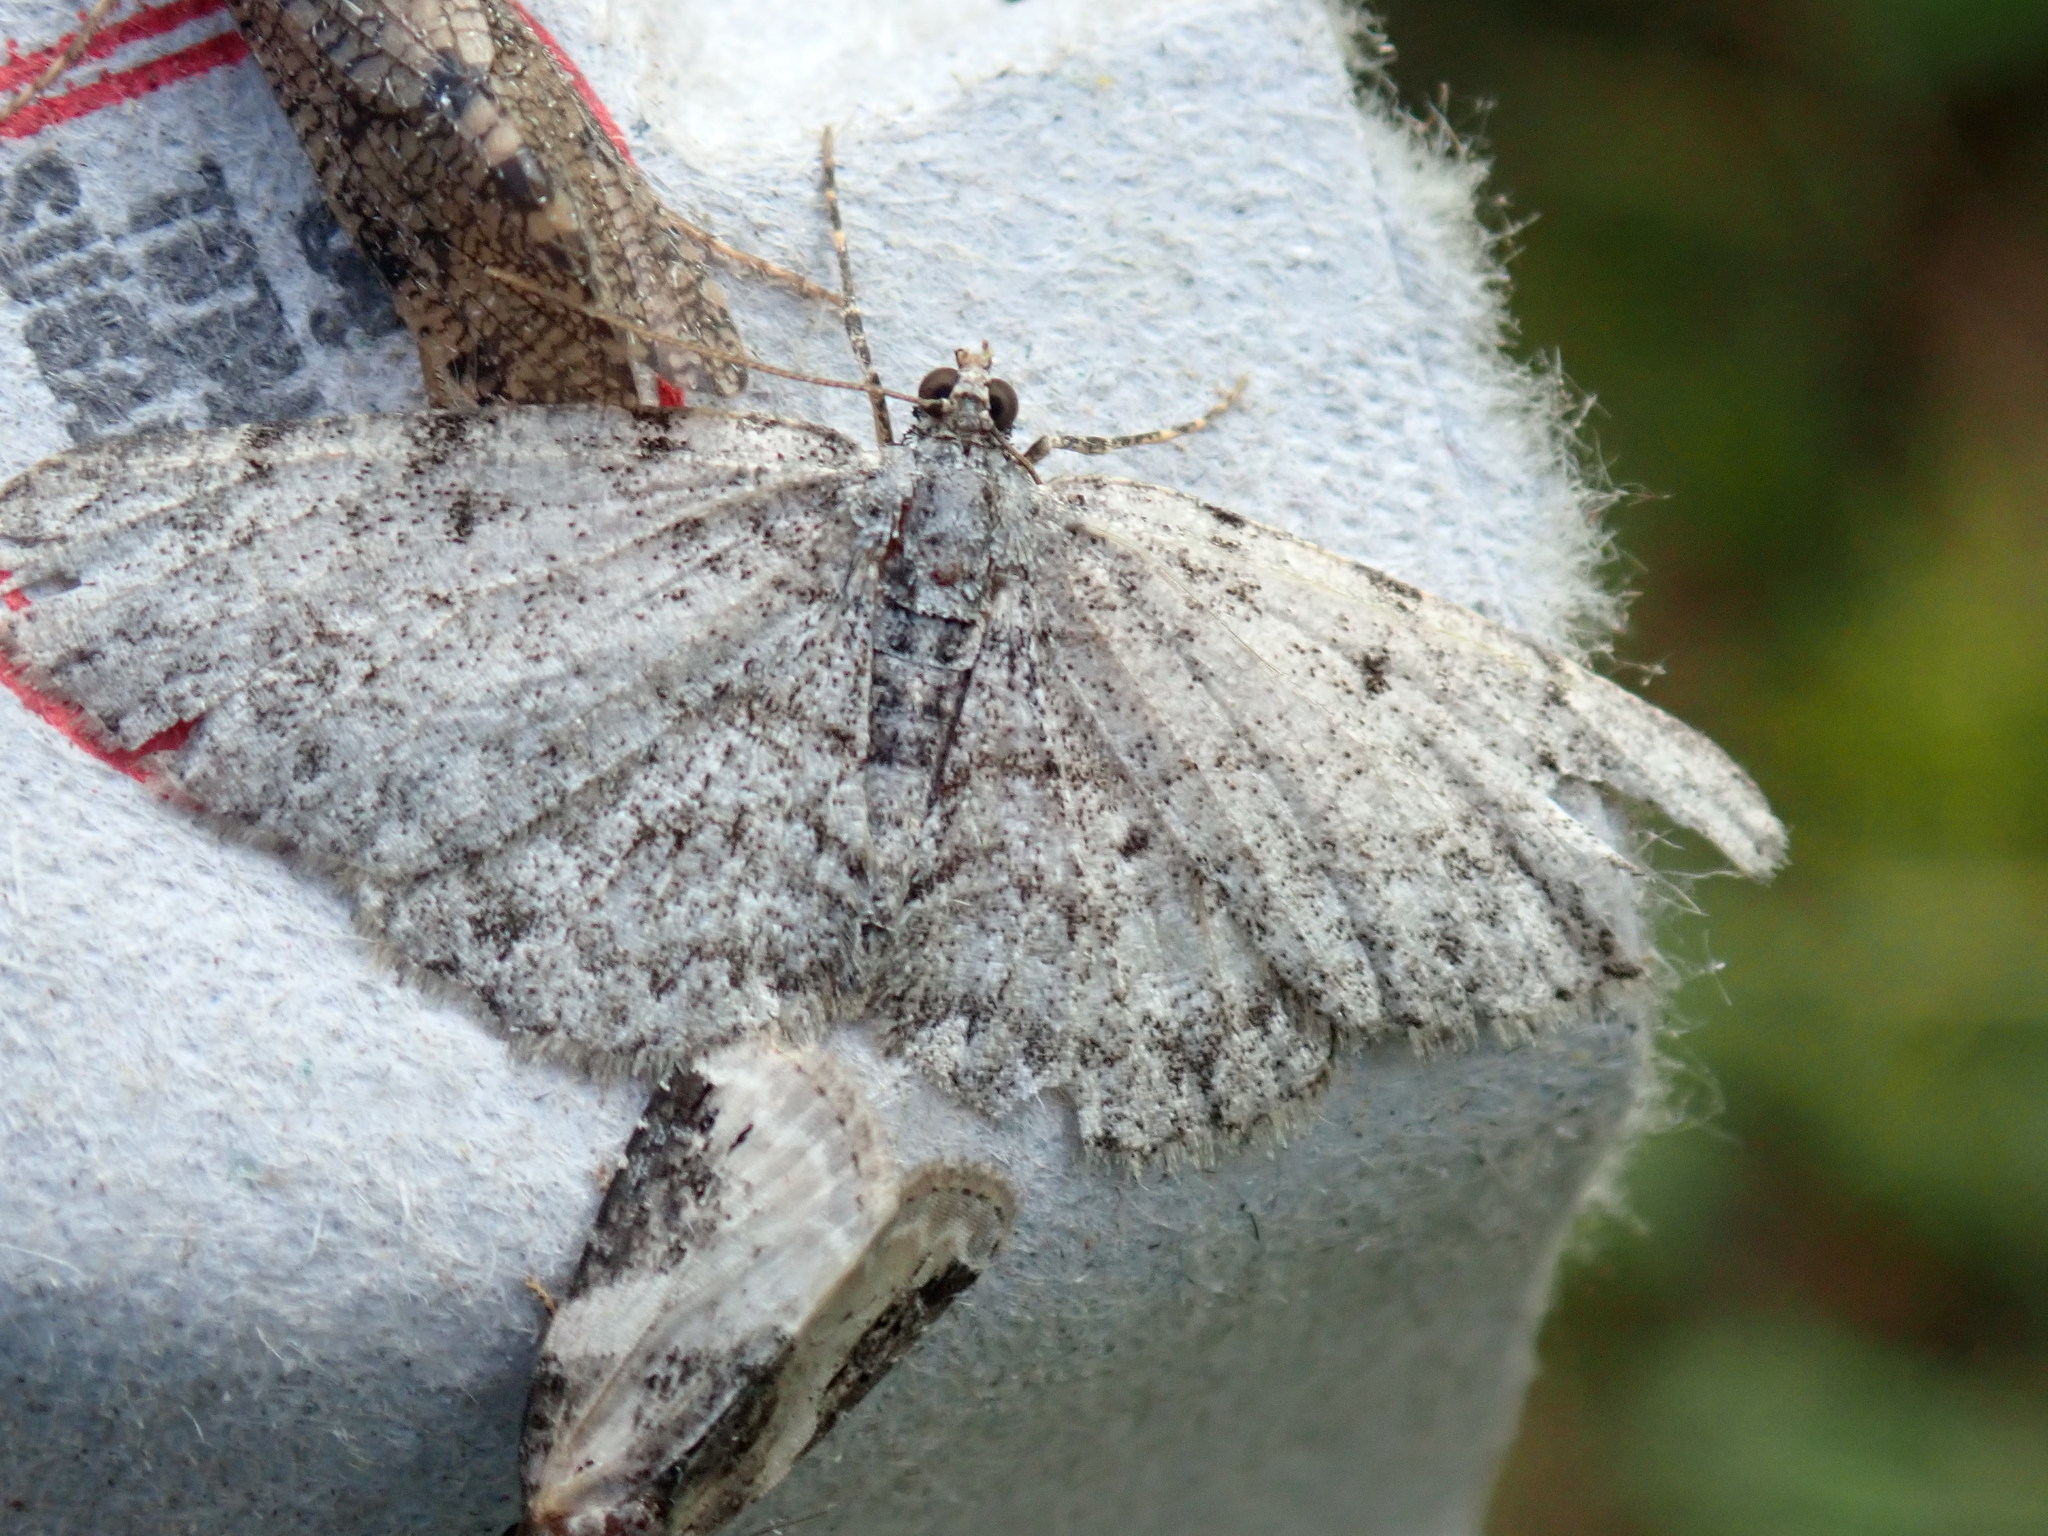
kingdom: Animalia
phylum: Arthropoda
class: Insecta
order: Lepidoptera
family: Geometridae
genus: Protoboarmia
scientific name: Protoboarmia porcelaria
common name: Porcelain gray
